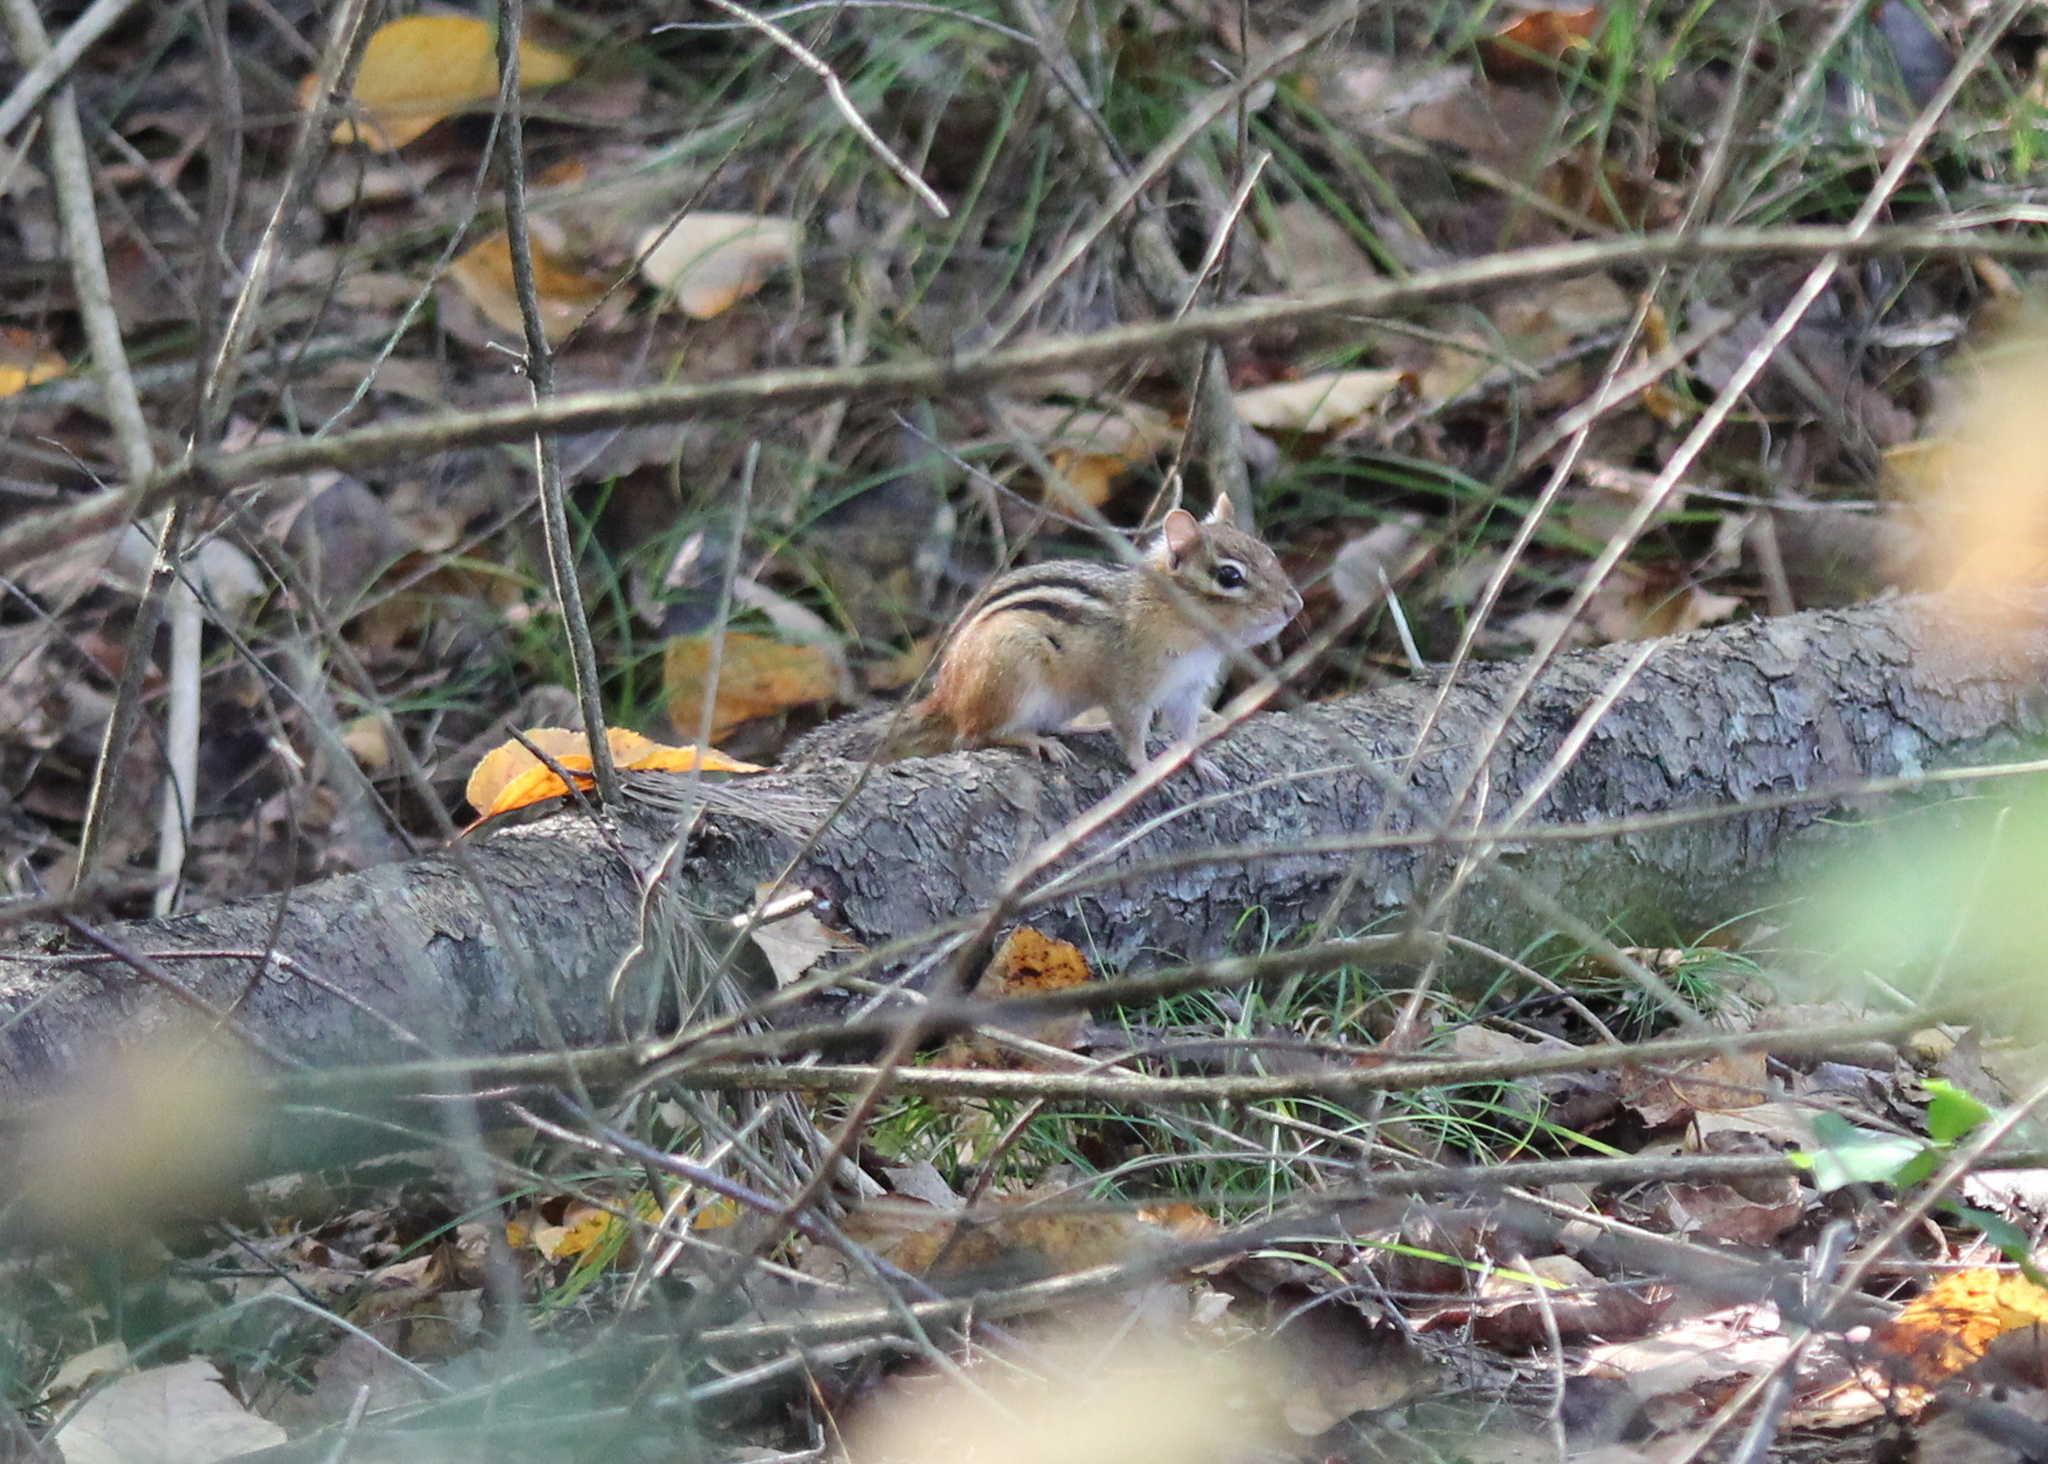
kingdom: Animalia
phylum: Chordata
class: Mammalia
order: Rodentia
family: Sciuridae
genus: Tamias
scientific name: Tamias striatus
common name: Eastern chipmunk
